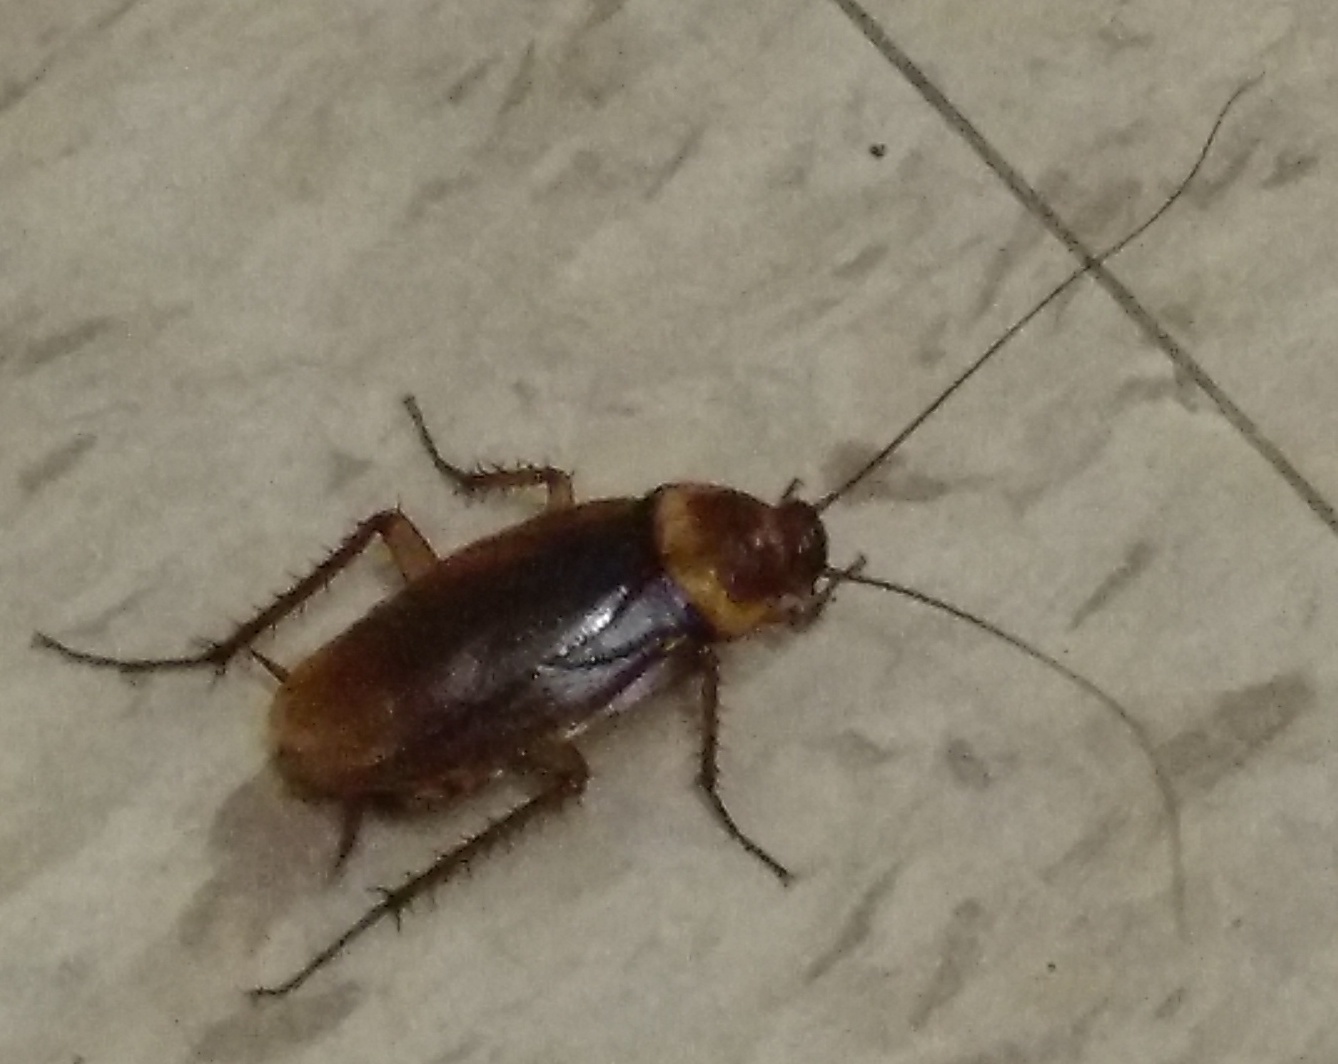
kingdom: Animalia
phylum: Arthropoda
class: Insecta
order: Blattodea
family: Blattidae
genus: Periplaneta
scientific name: Periplaneta americana
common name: American cockroach
